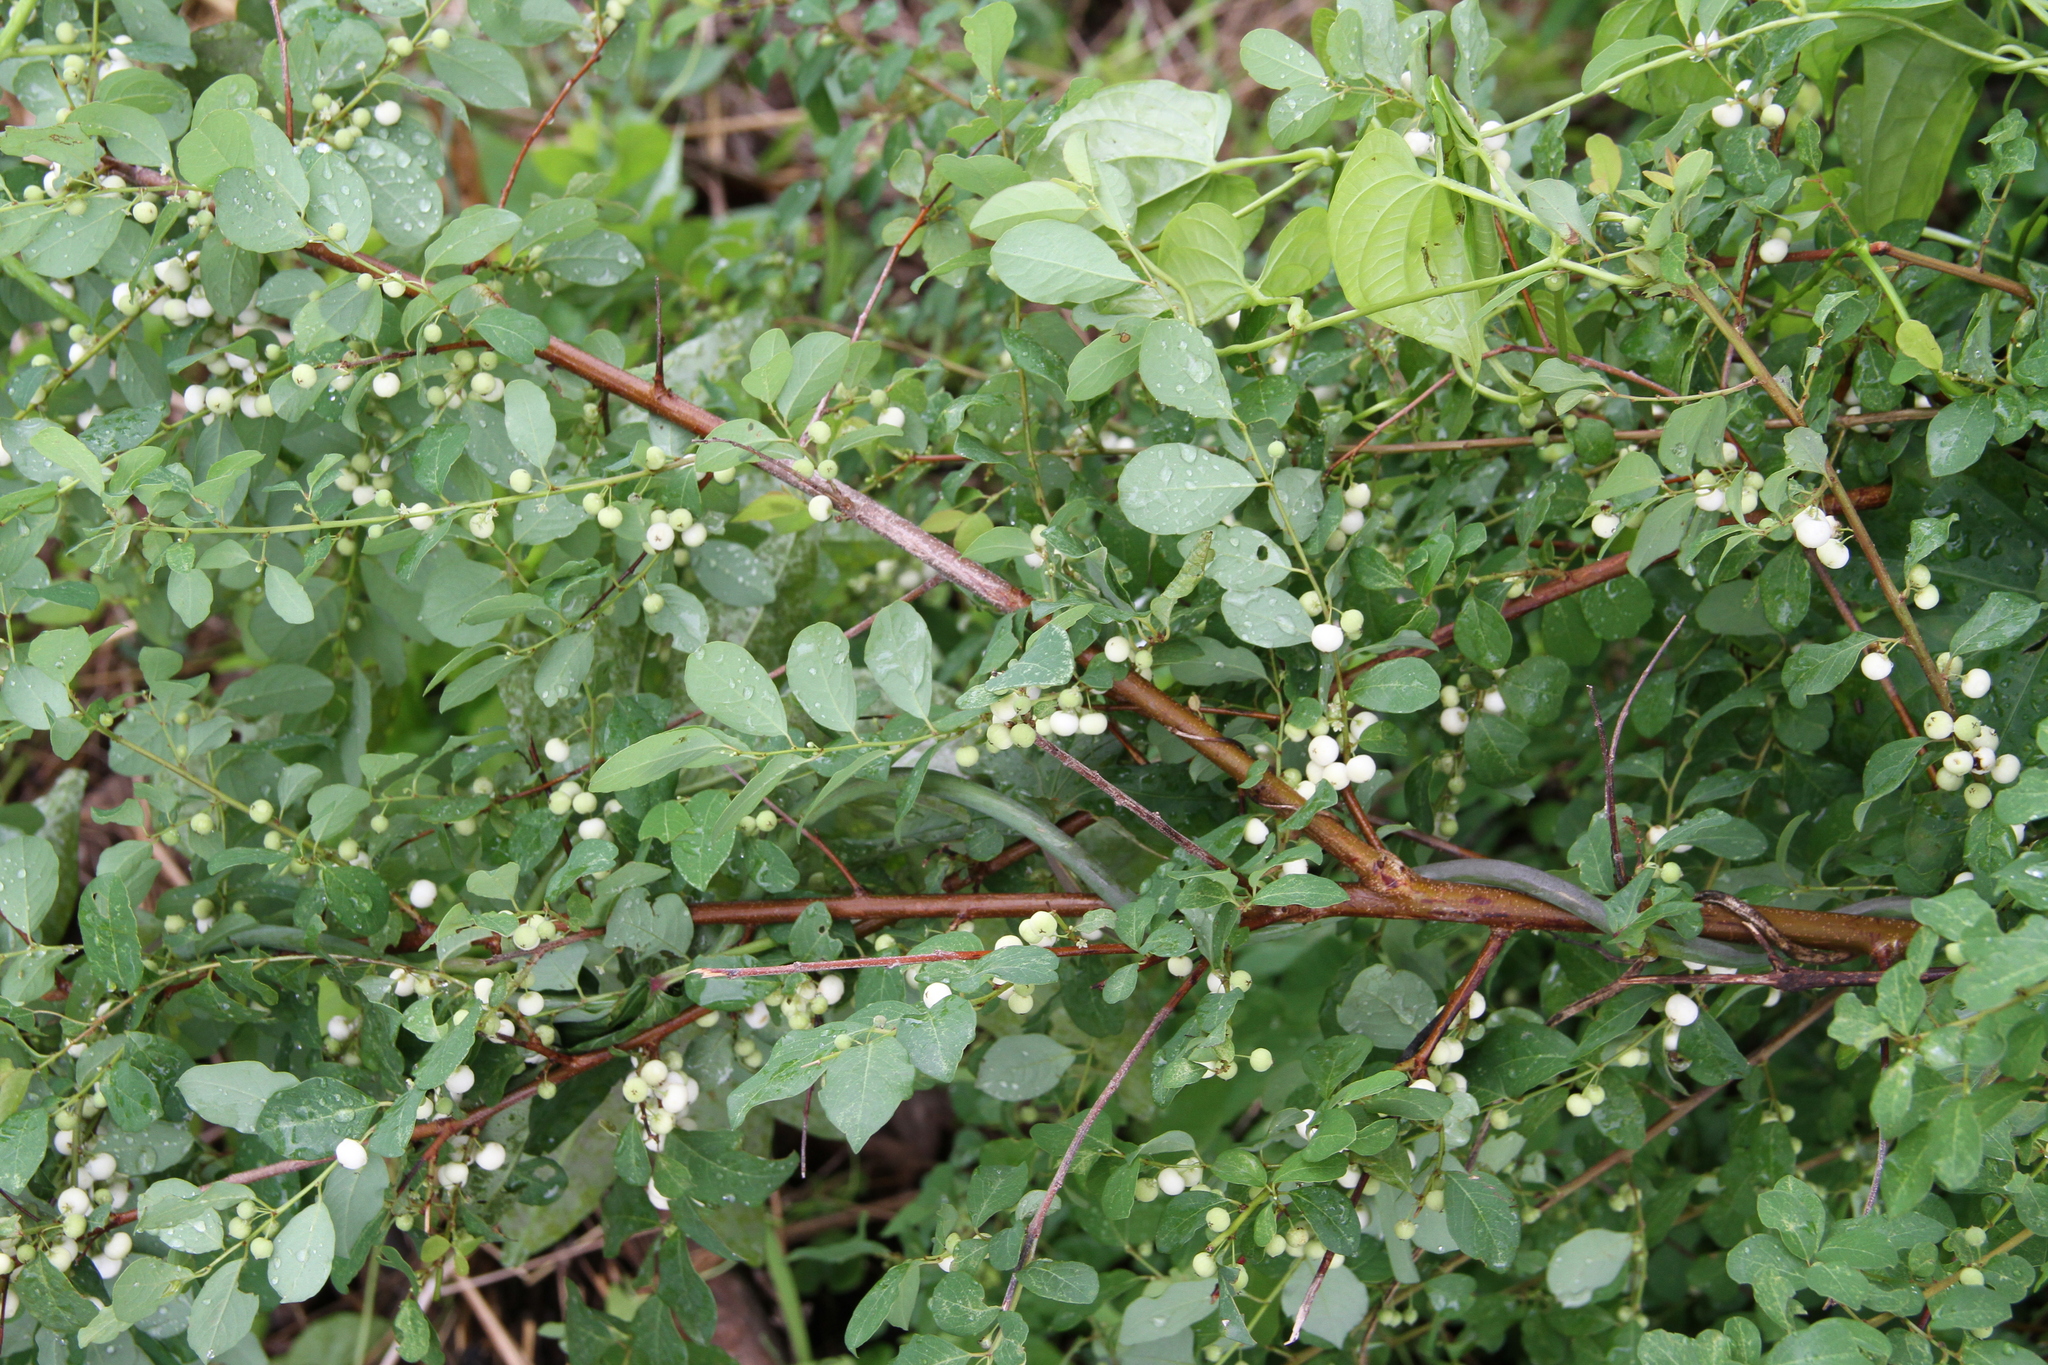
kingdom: Plantae
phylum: Tracheophyta
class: Magnoliopsida
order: Malpighiales
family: Phyllanthaceae
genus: Flueggea
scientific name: Flueggea virosa
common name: Common bushweed
